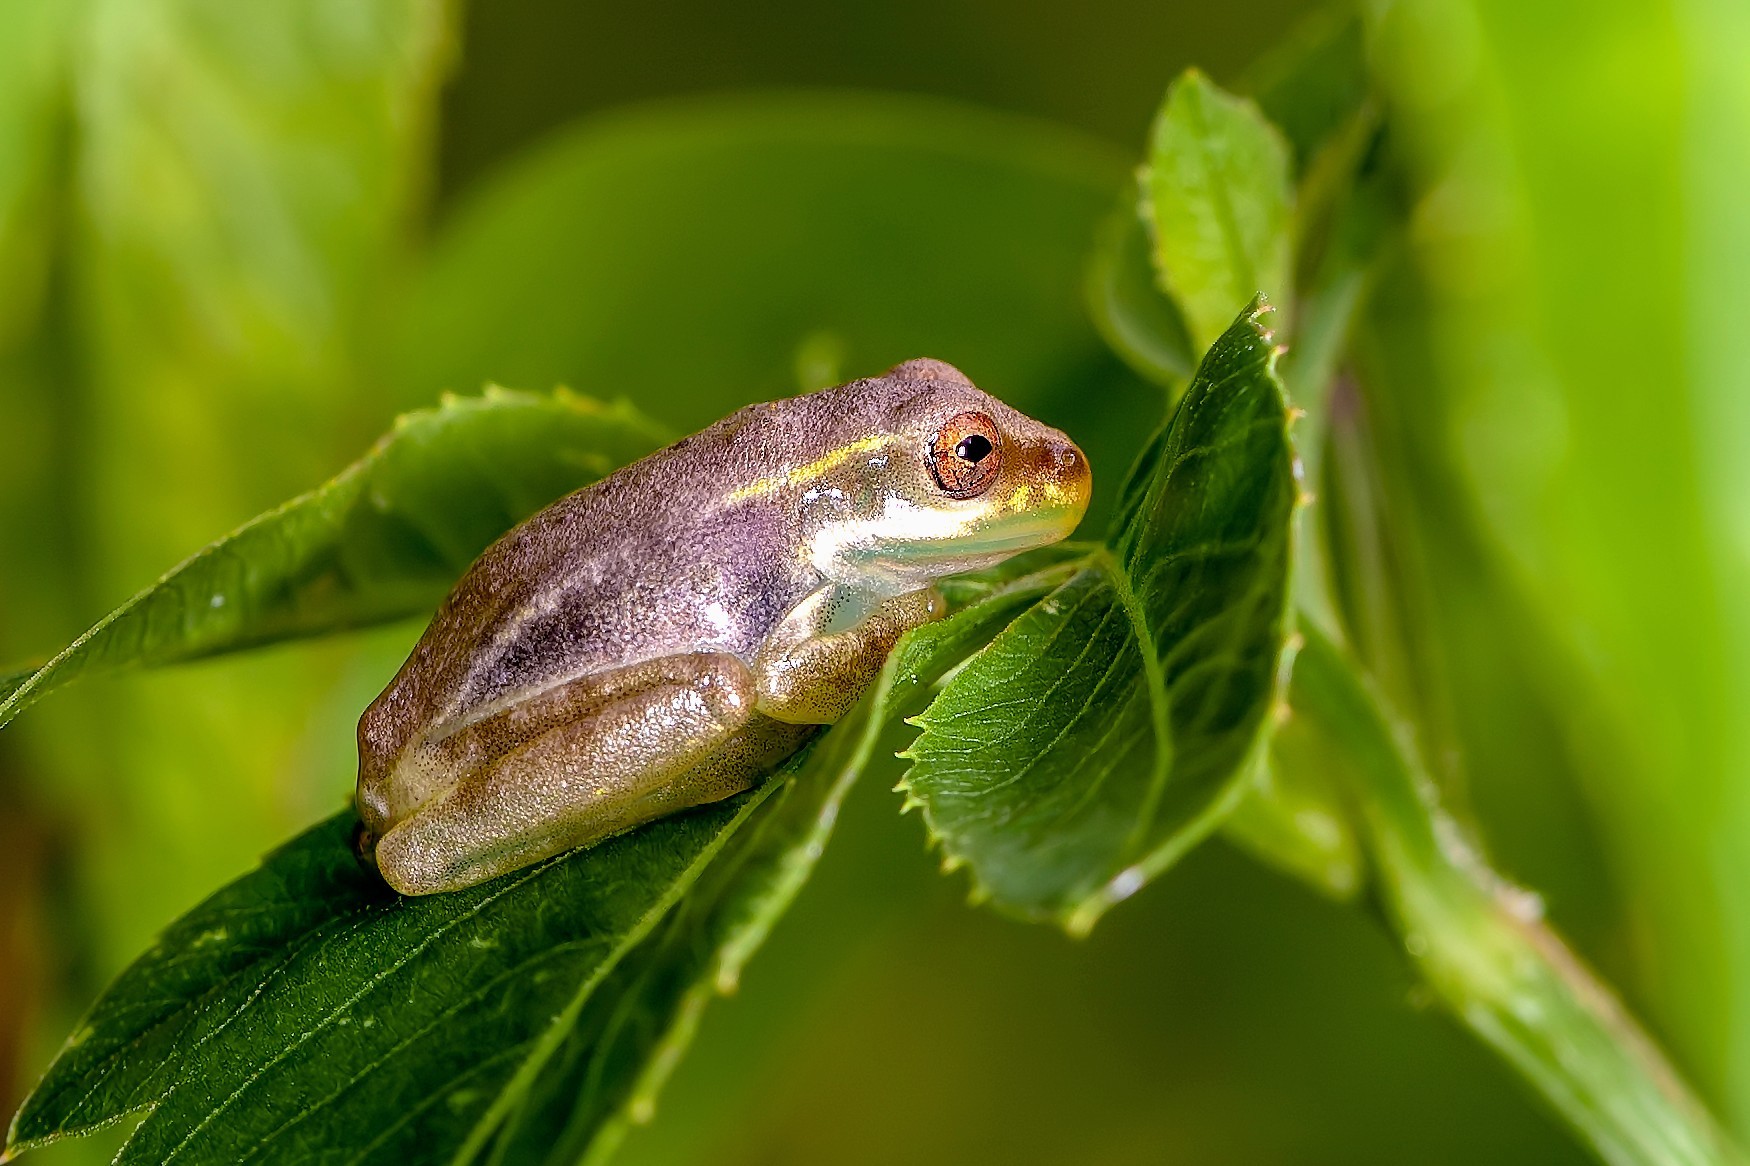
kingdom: Animalia
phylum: Chordata
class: Amphibia
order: Anura
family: Hylidae
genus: Osteopilus
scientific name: Osteopilus septentrionalis
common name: Cuban treefrog
